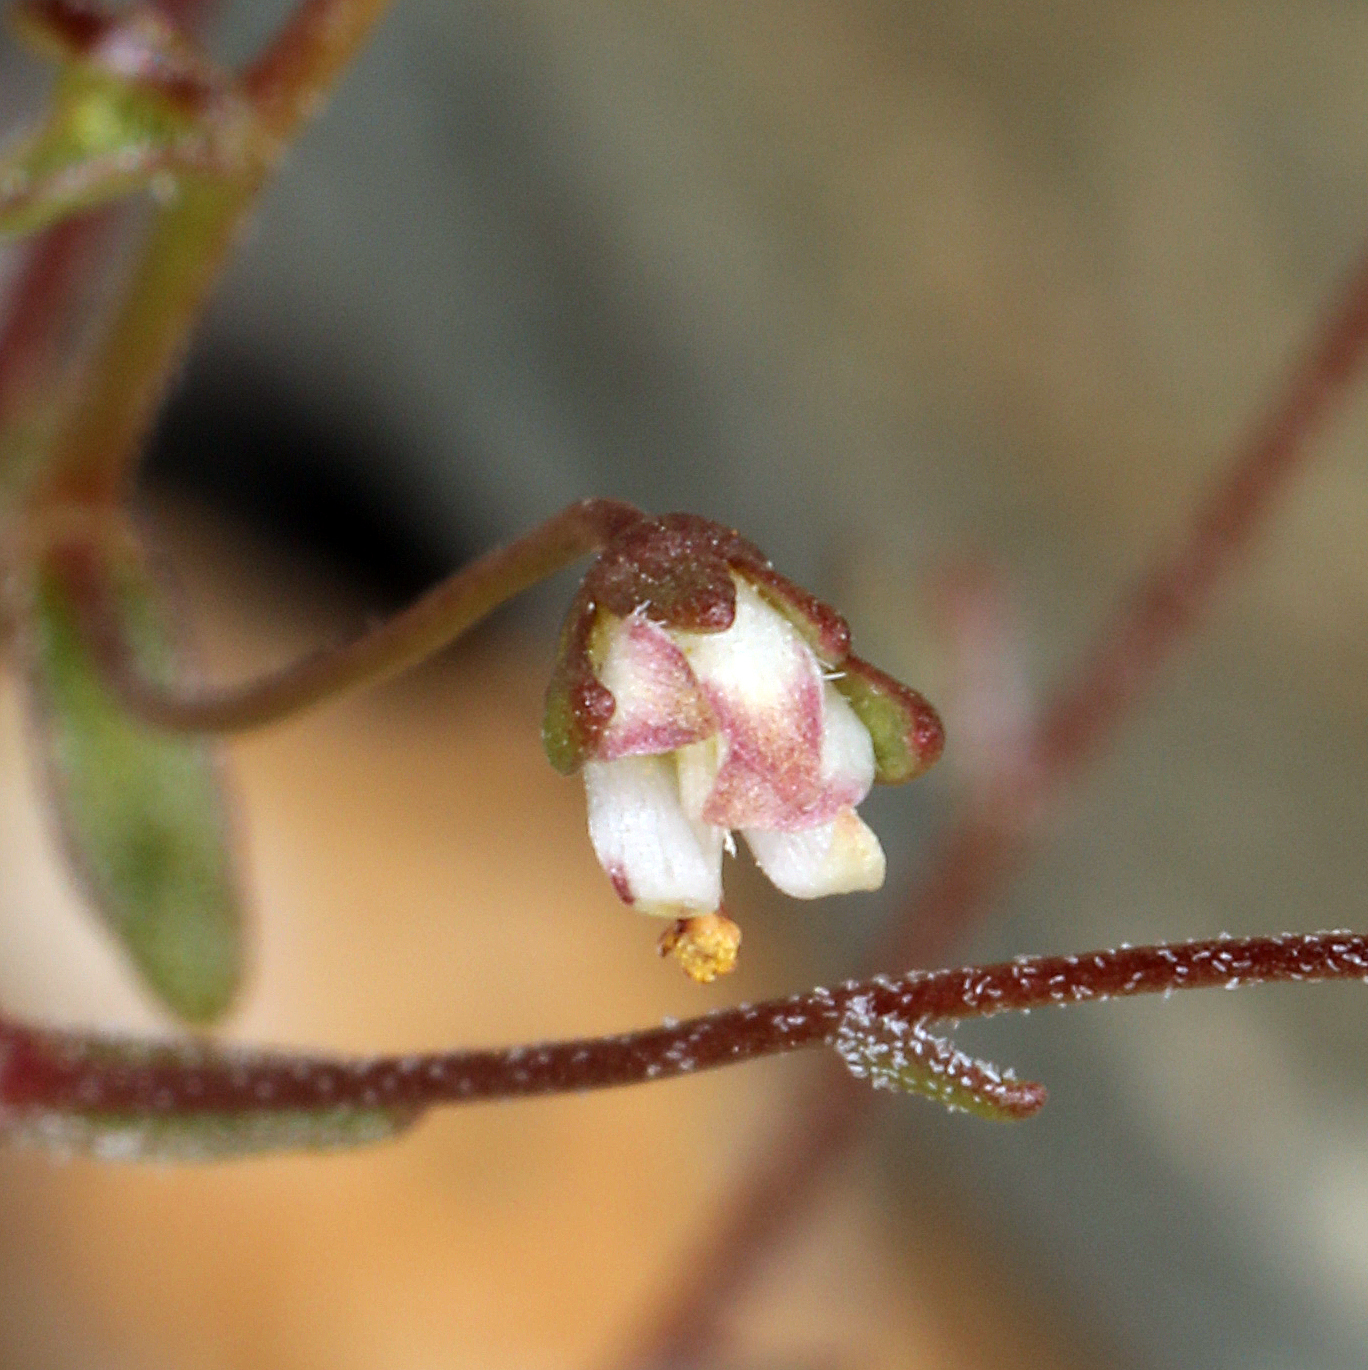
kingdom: Plantae
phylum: Tracheophyta
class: Magnoliopsida
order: Asterales
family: Campanulaceae
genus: Nemacladus
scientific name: Nemacladus morefieldii
